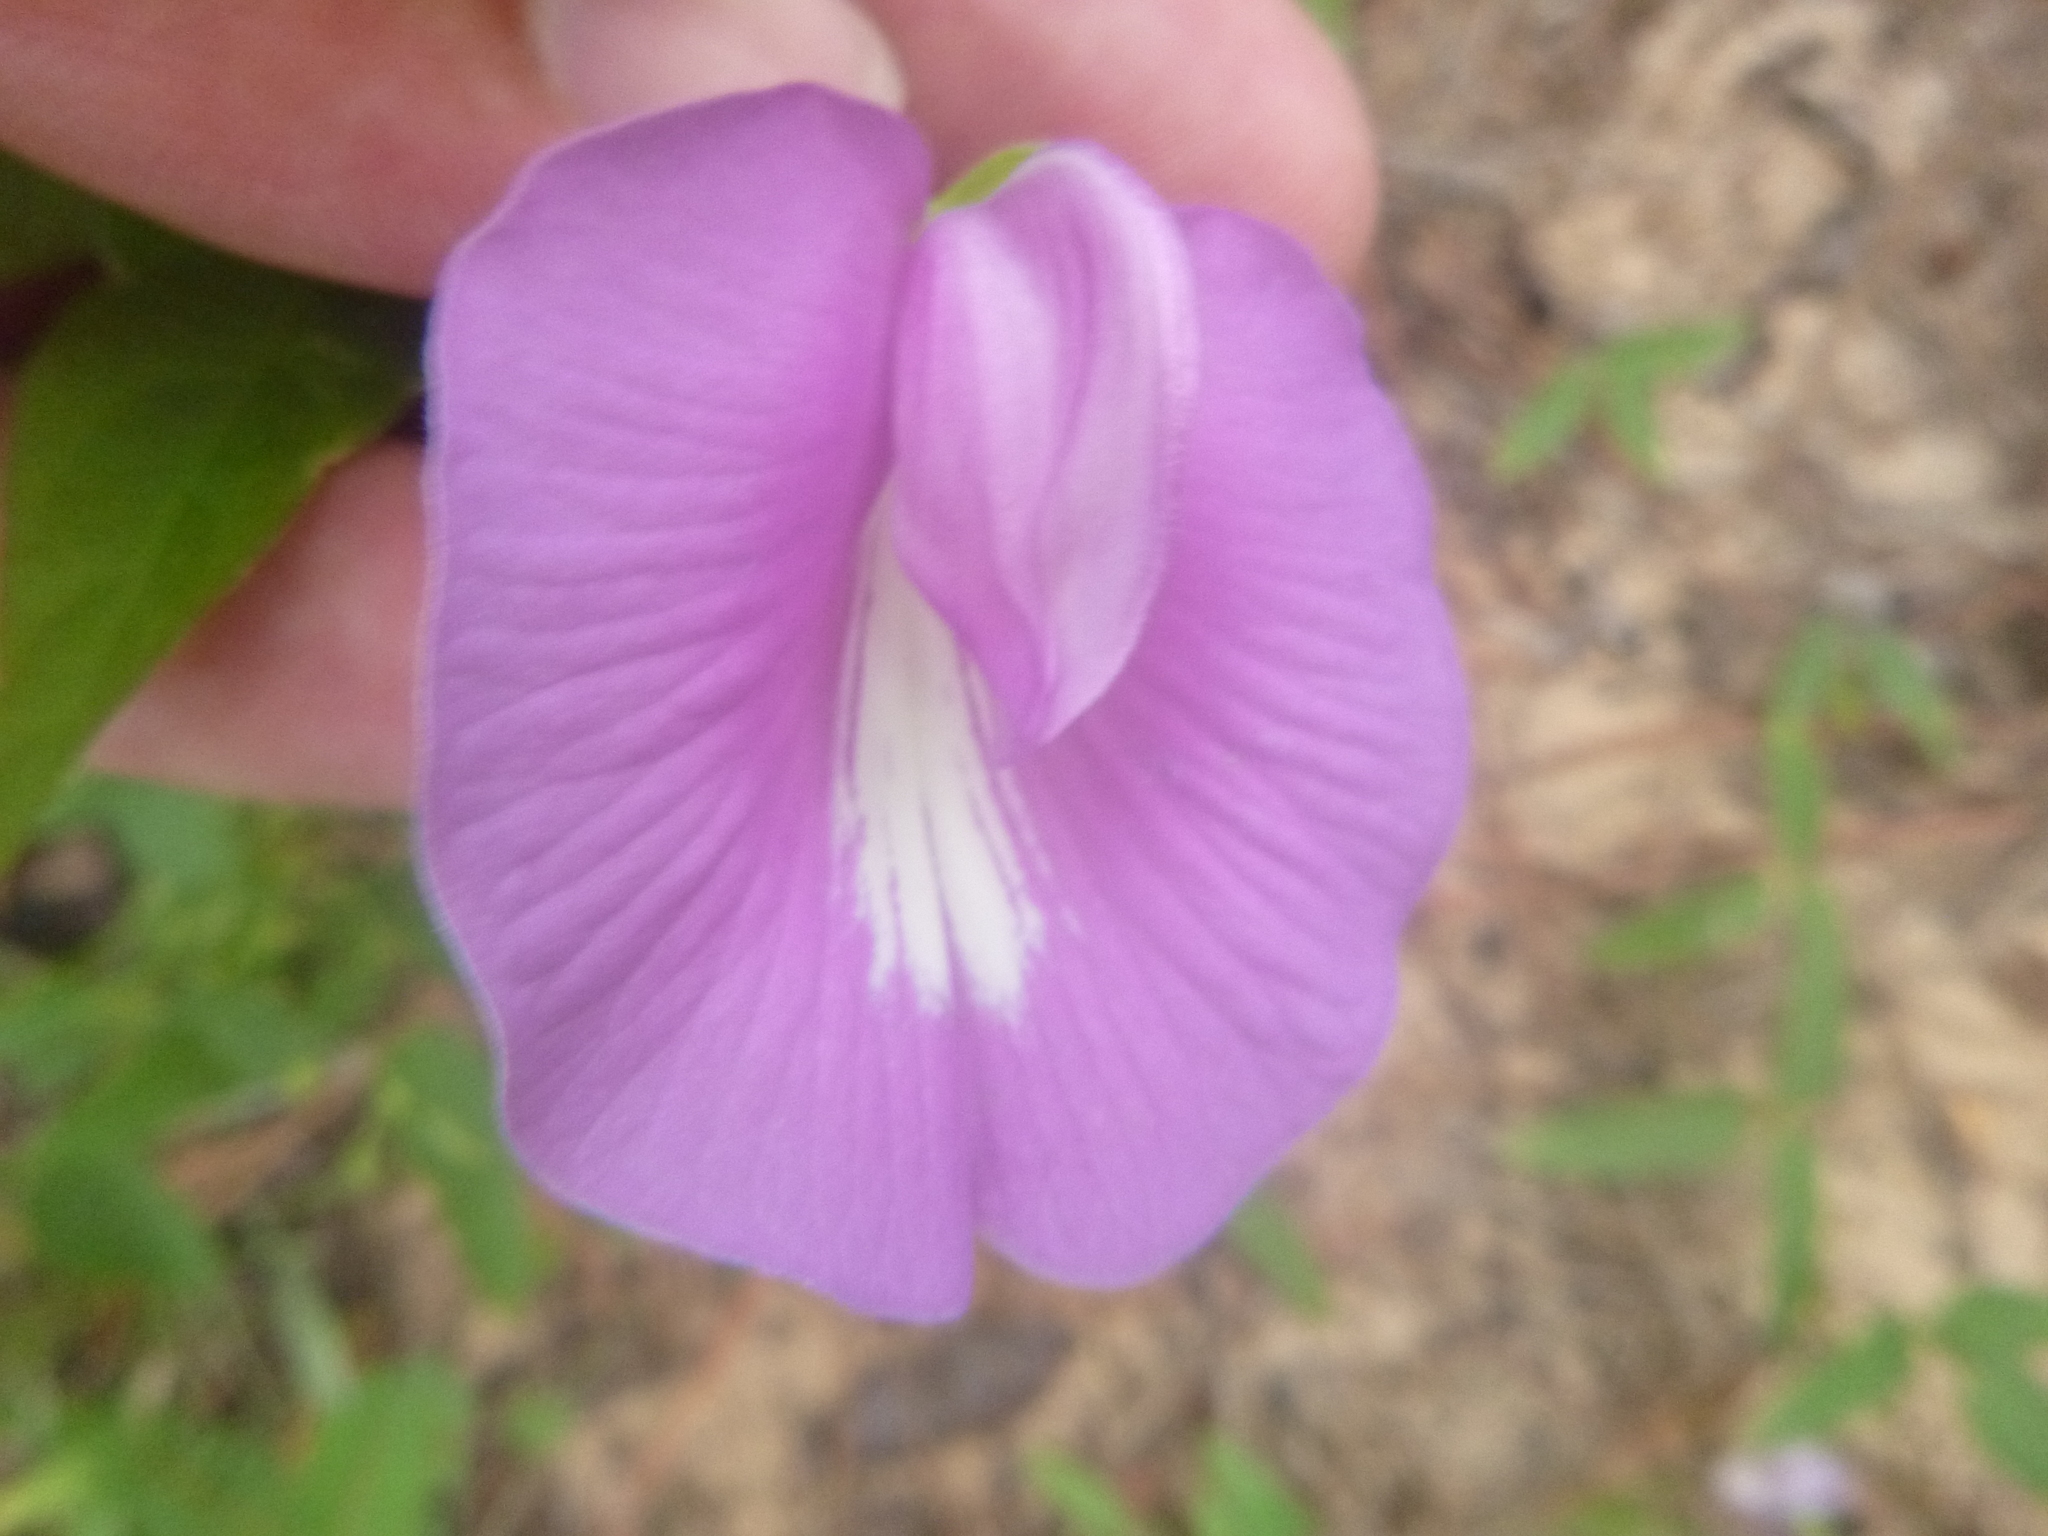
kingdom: Plantae
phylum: Tracheophyta
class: Magnoliopsida
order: Fabales
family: Fabaceae
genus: Centrosema
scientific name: Centrosema virginianum
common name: Butterfly-pea
